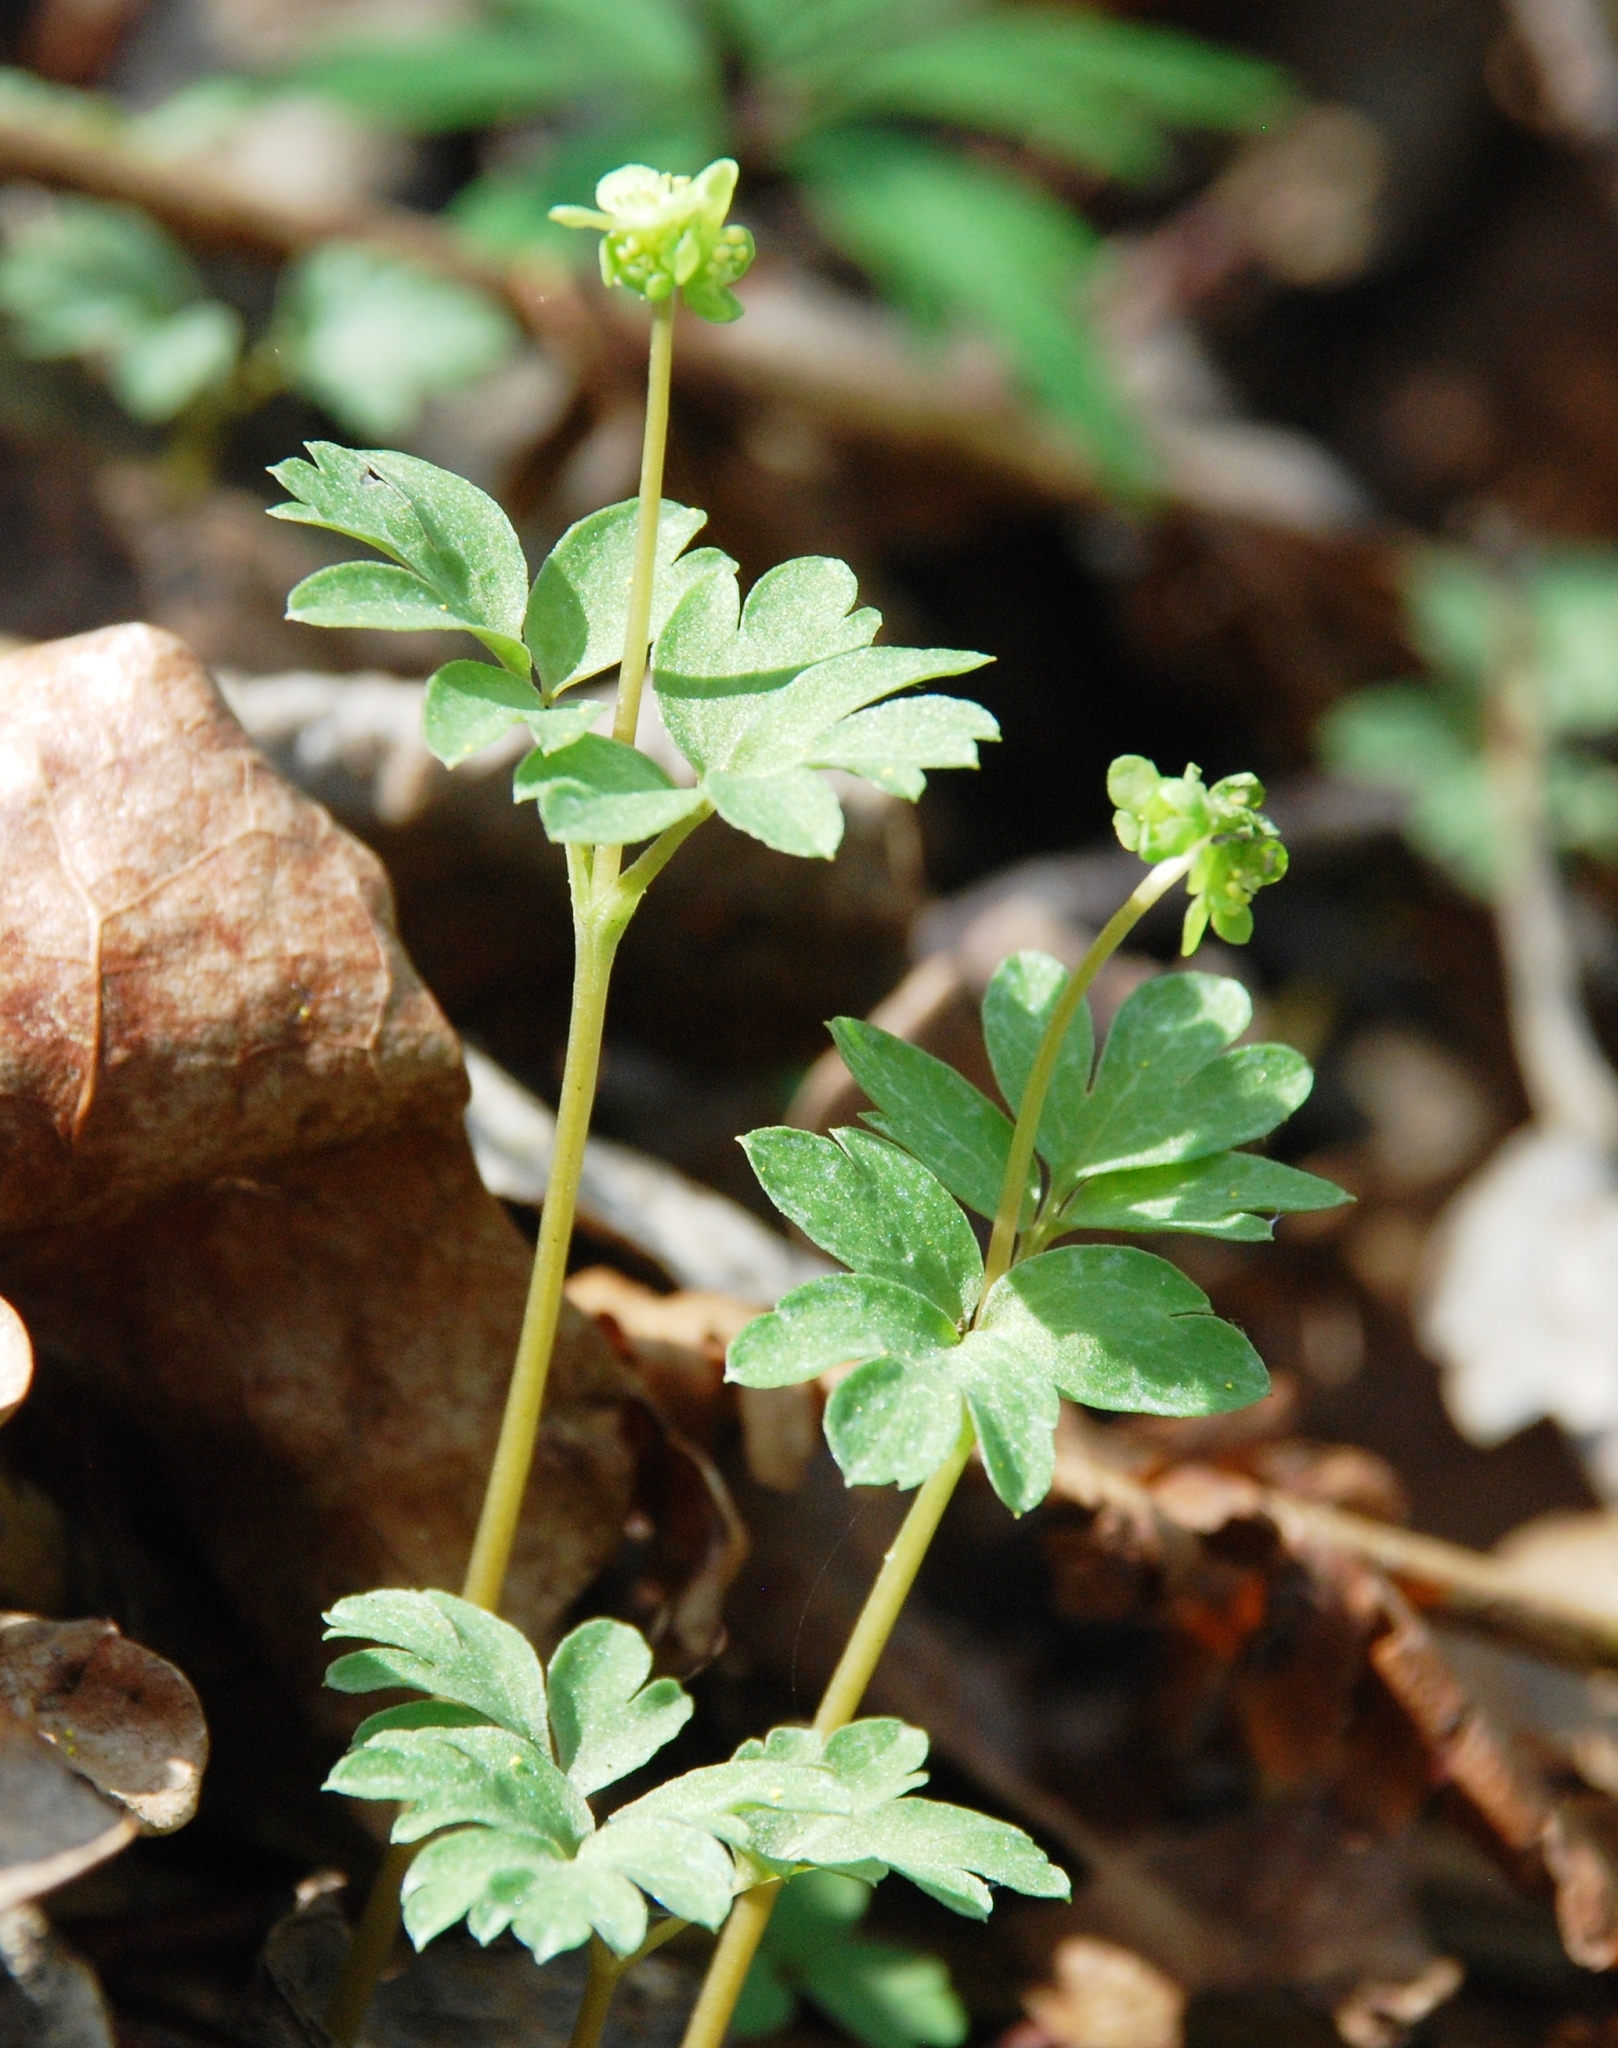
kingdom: Plantae
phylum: Tracheophyta
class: Magnoliopsida
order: Dipsacales
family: Viburnaceae
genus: Adoxa
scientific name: Adoxa moschatellina
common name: Moschatel
